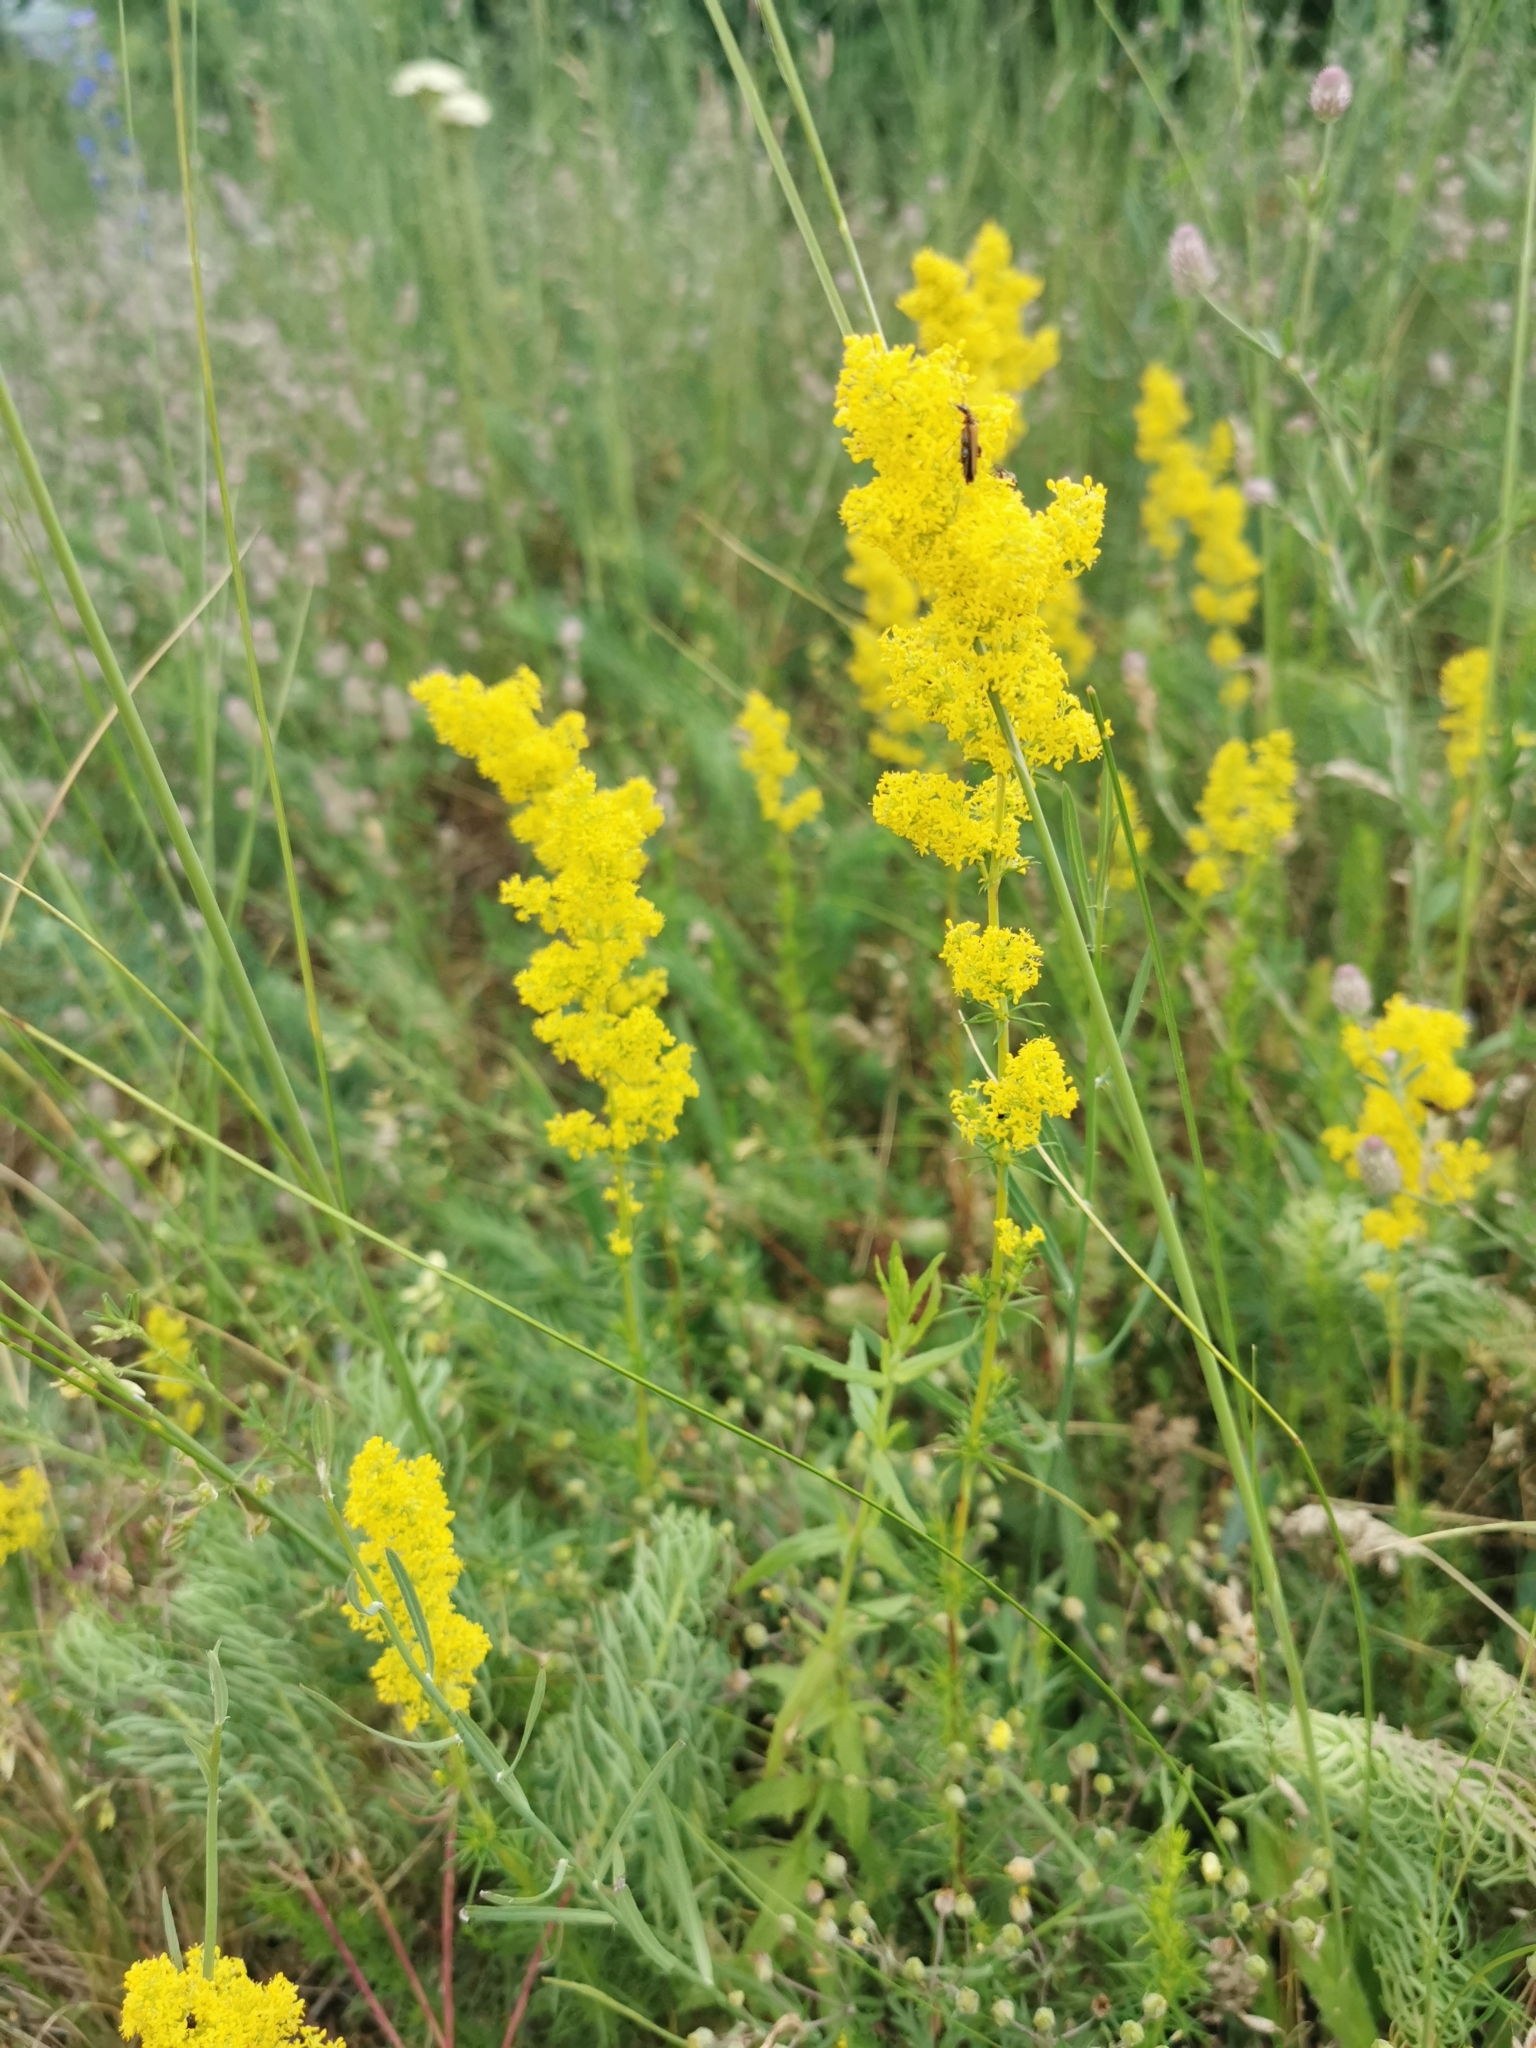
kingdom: Plantae
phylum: Tracheophyta
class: Magnoliopsida
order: Gentianales
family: Rubiaceae
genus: Galium
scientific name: Galium verum
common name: Lady's bedstraw
